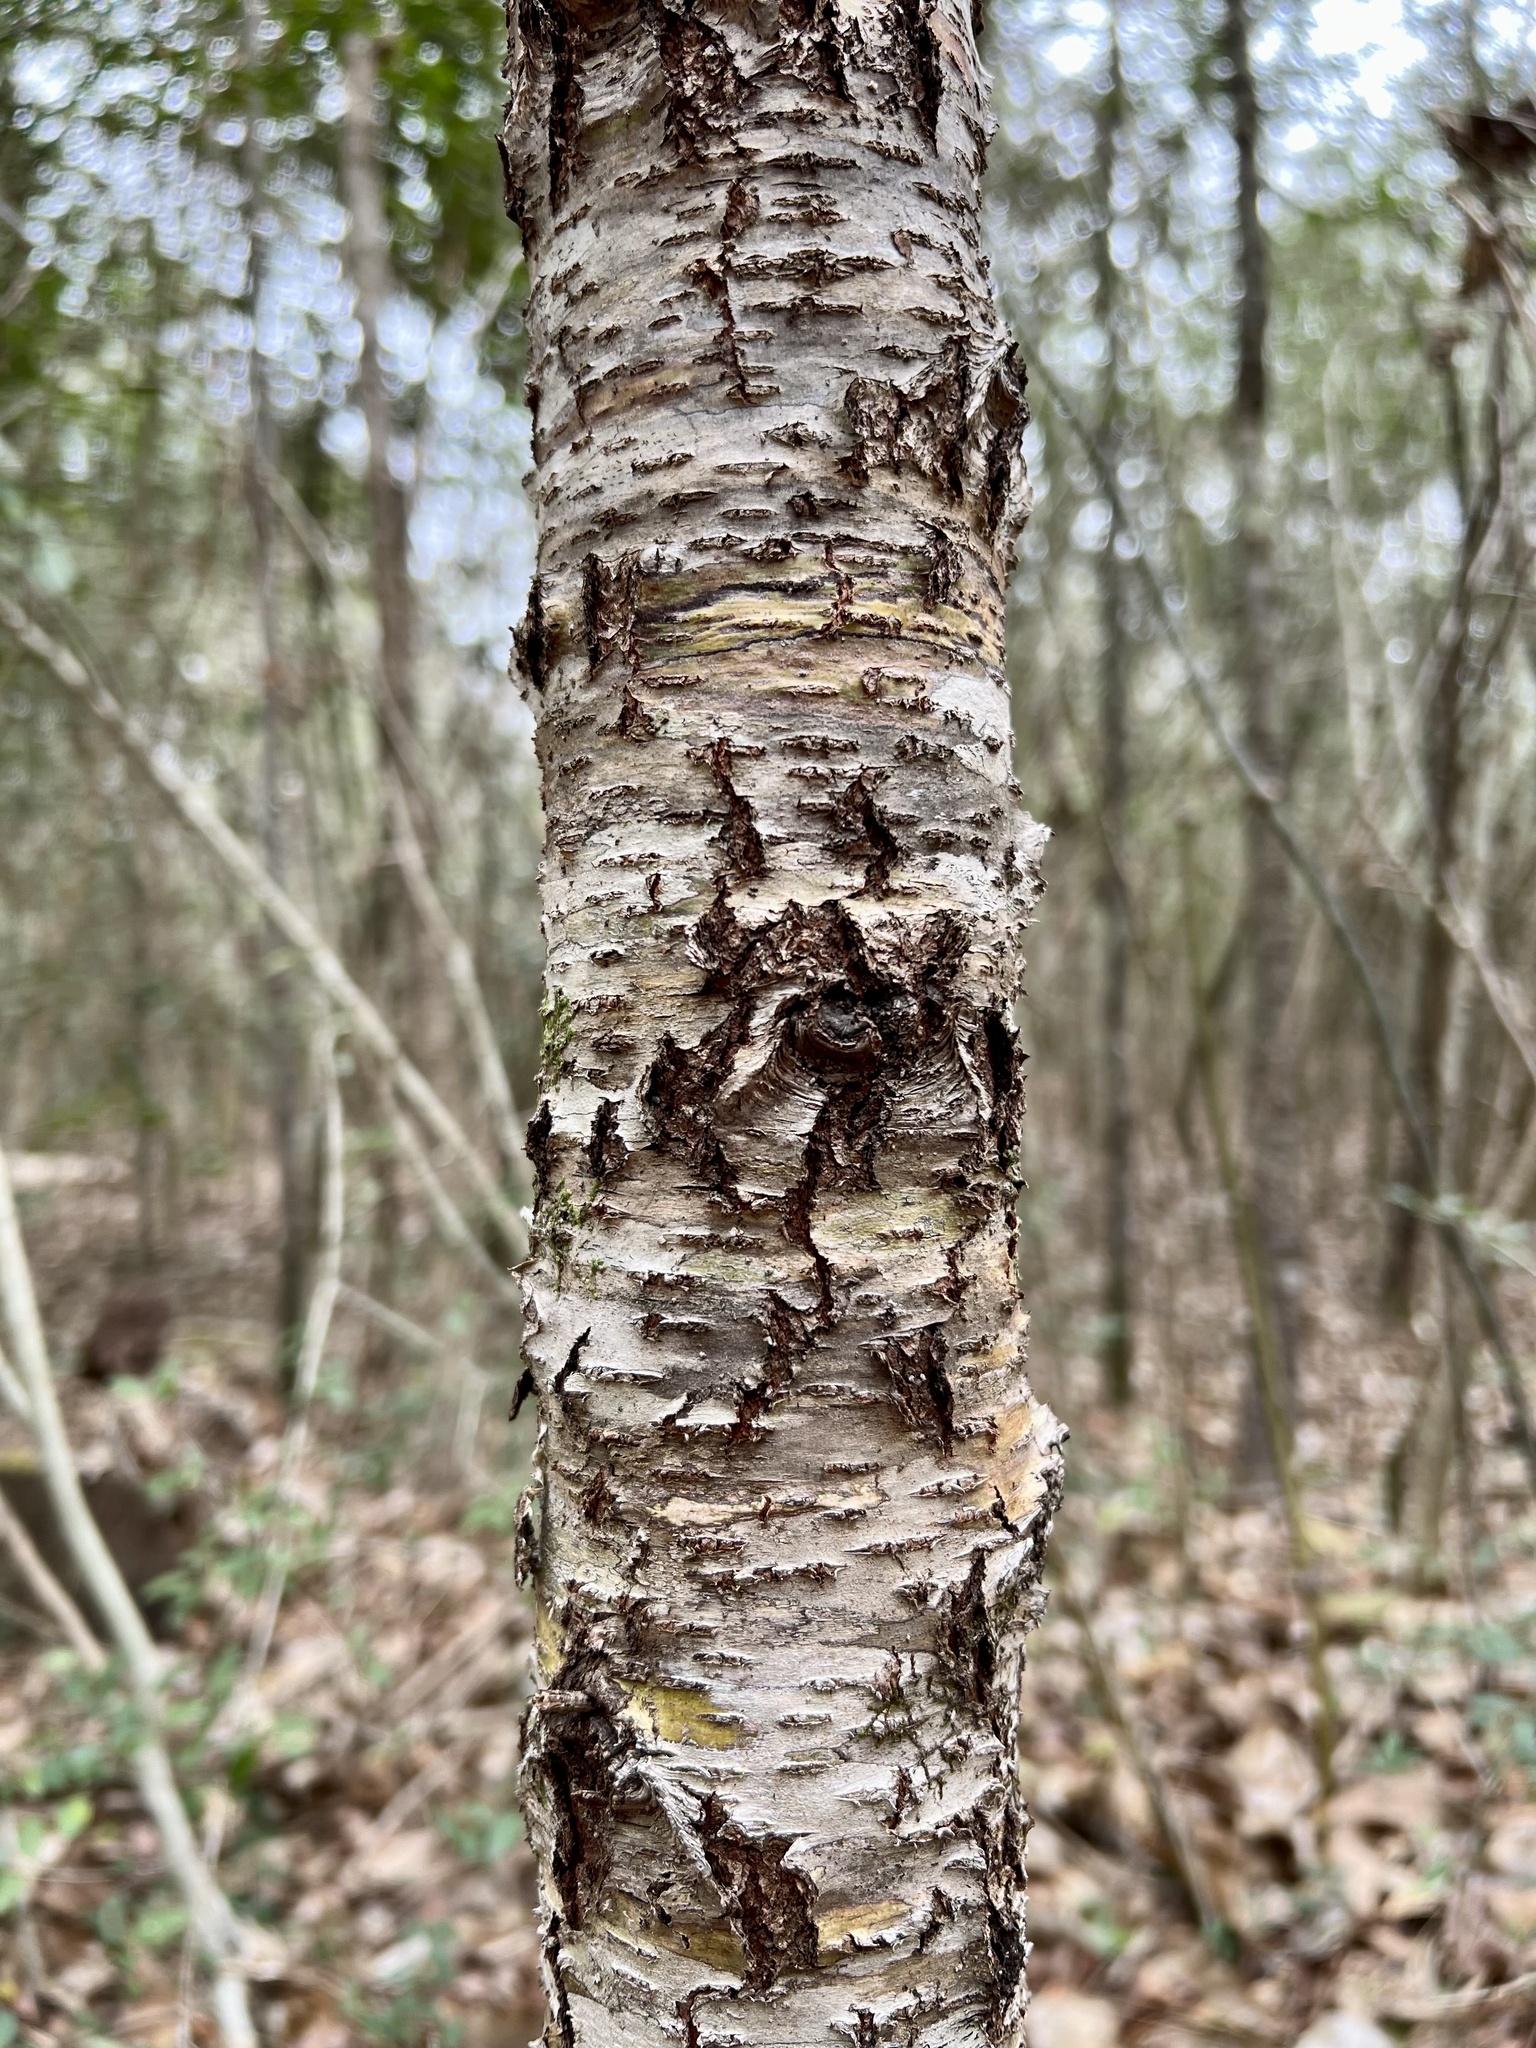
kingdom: Plantae
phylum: Tracheophyta
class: Magnoliopsida
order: Rosales
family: Rosaceae
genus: Prunus
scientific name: Prunus serotina
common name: Black cherry
